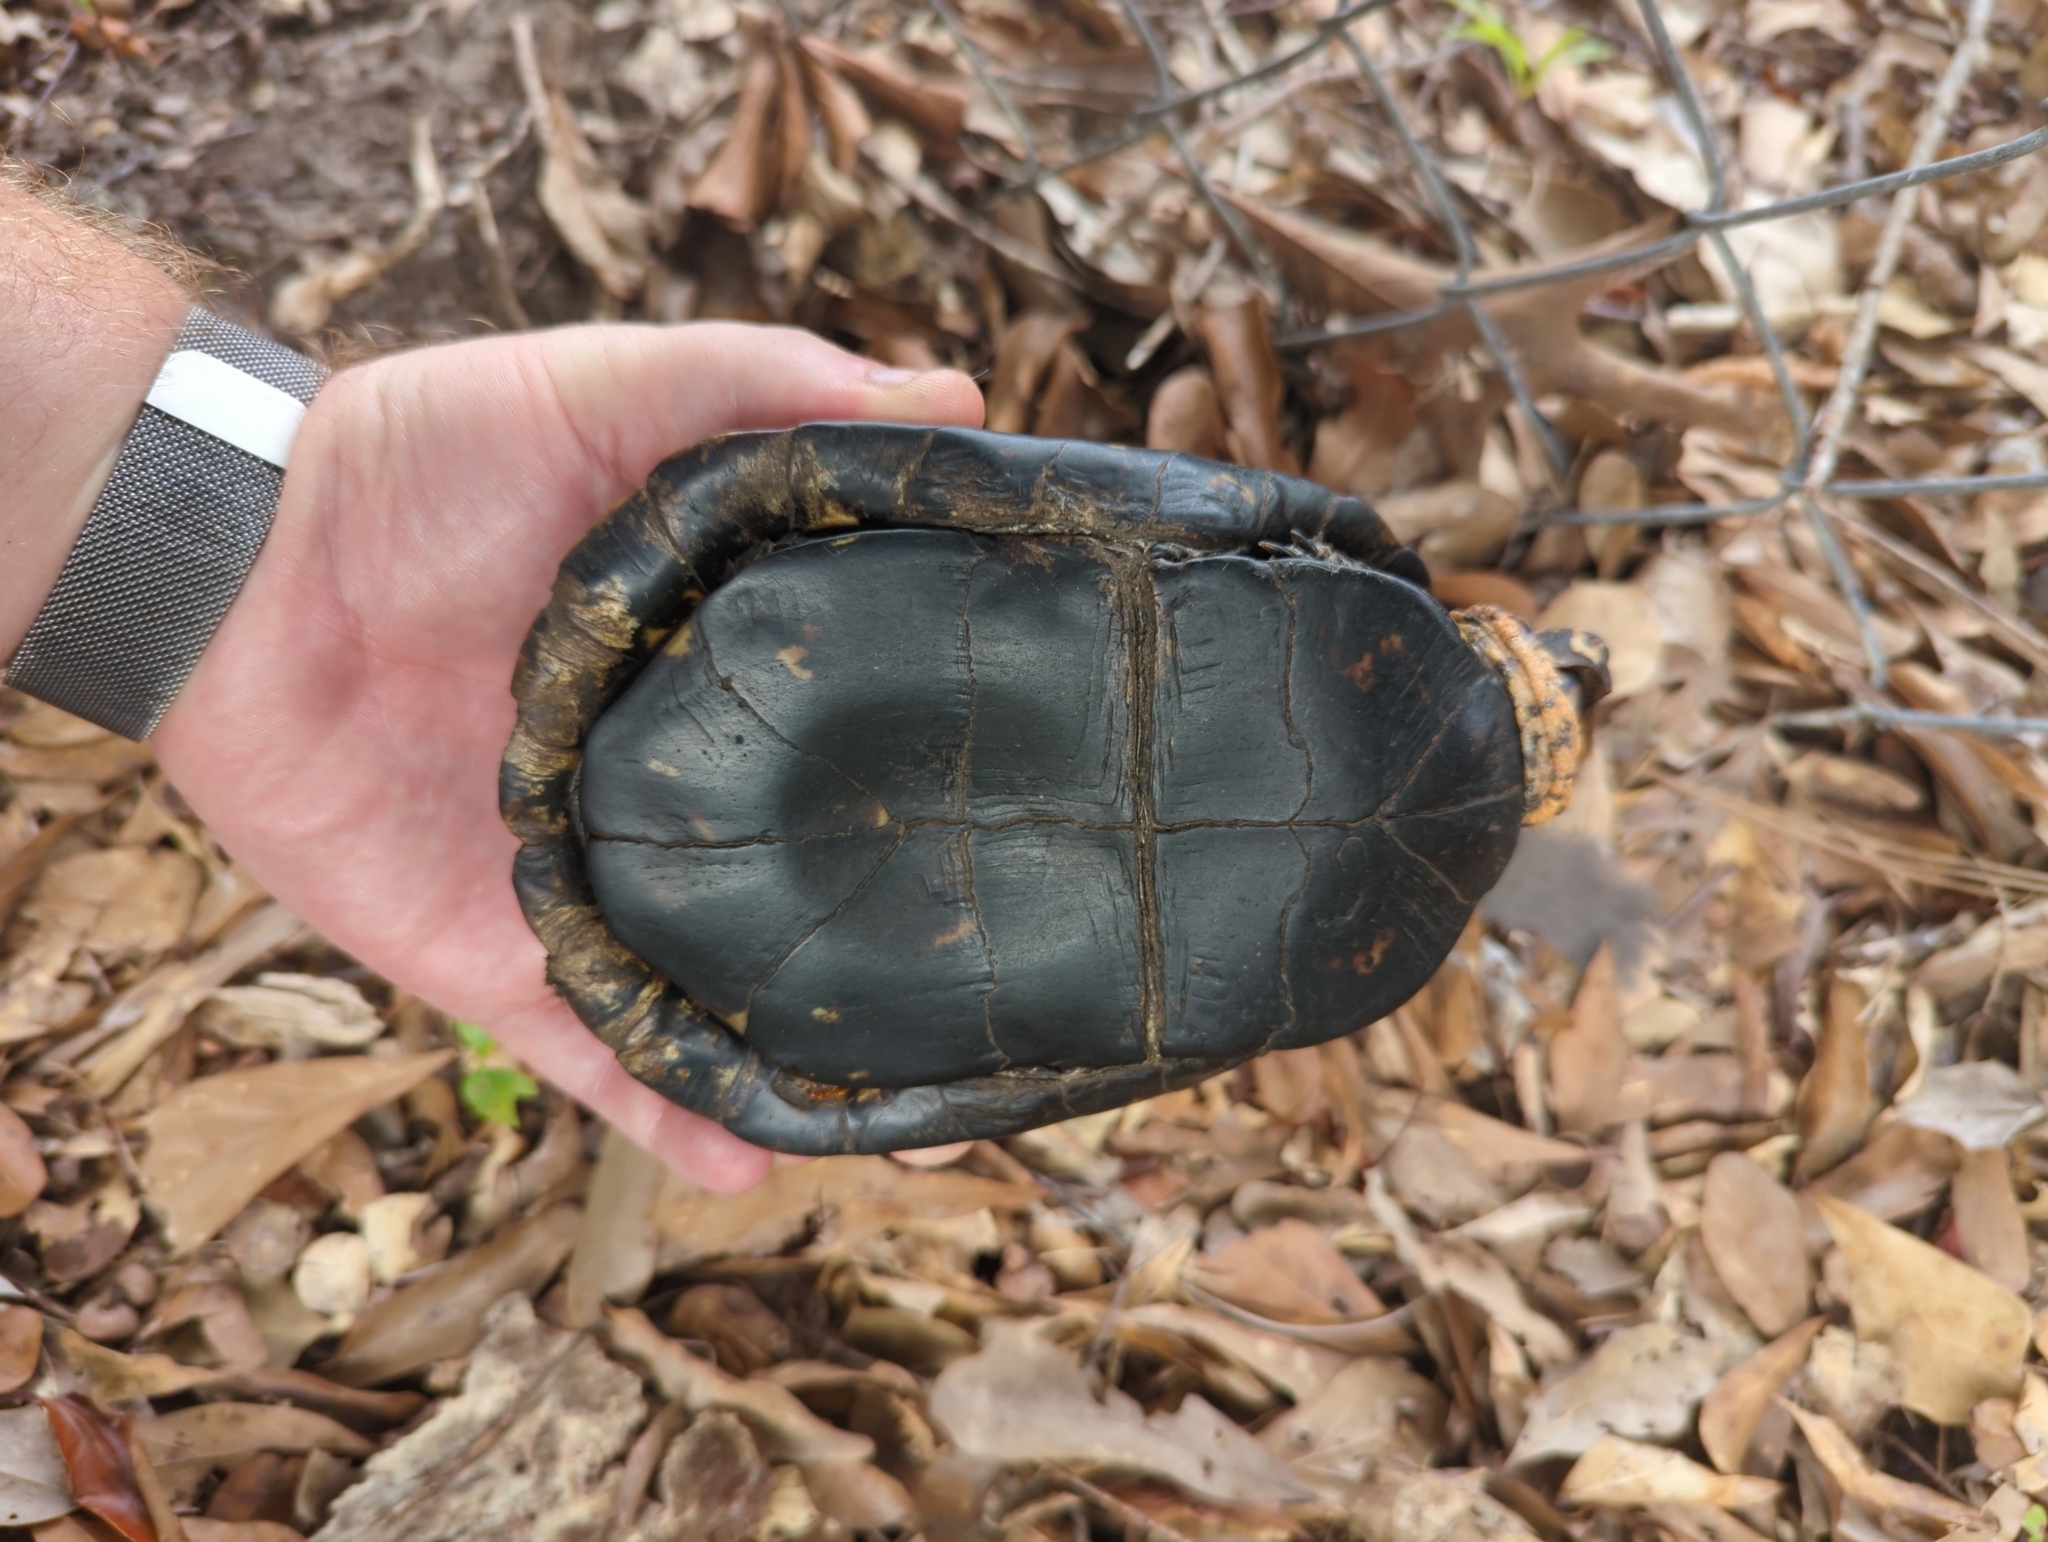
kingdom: Animalia
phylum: Chordata
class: Testudines
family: Emydidae
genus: Terrapene
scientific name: Terrapene carolina
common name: Common box turtle
